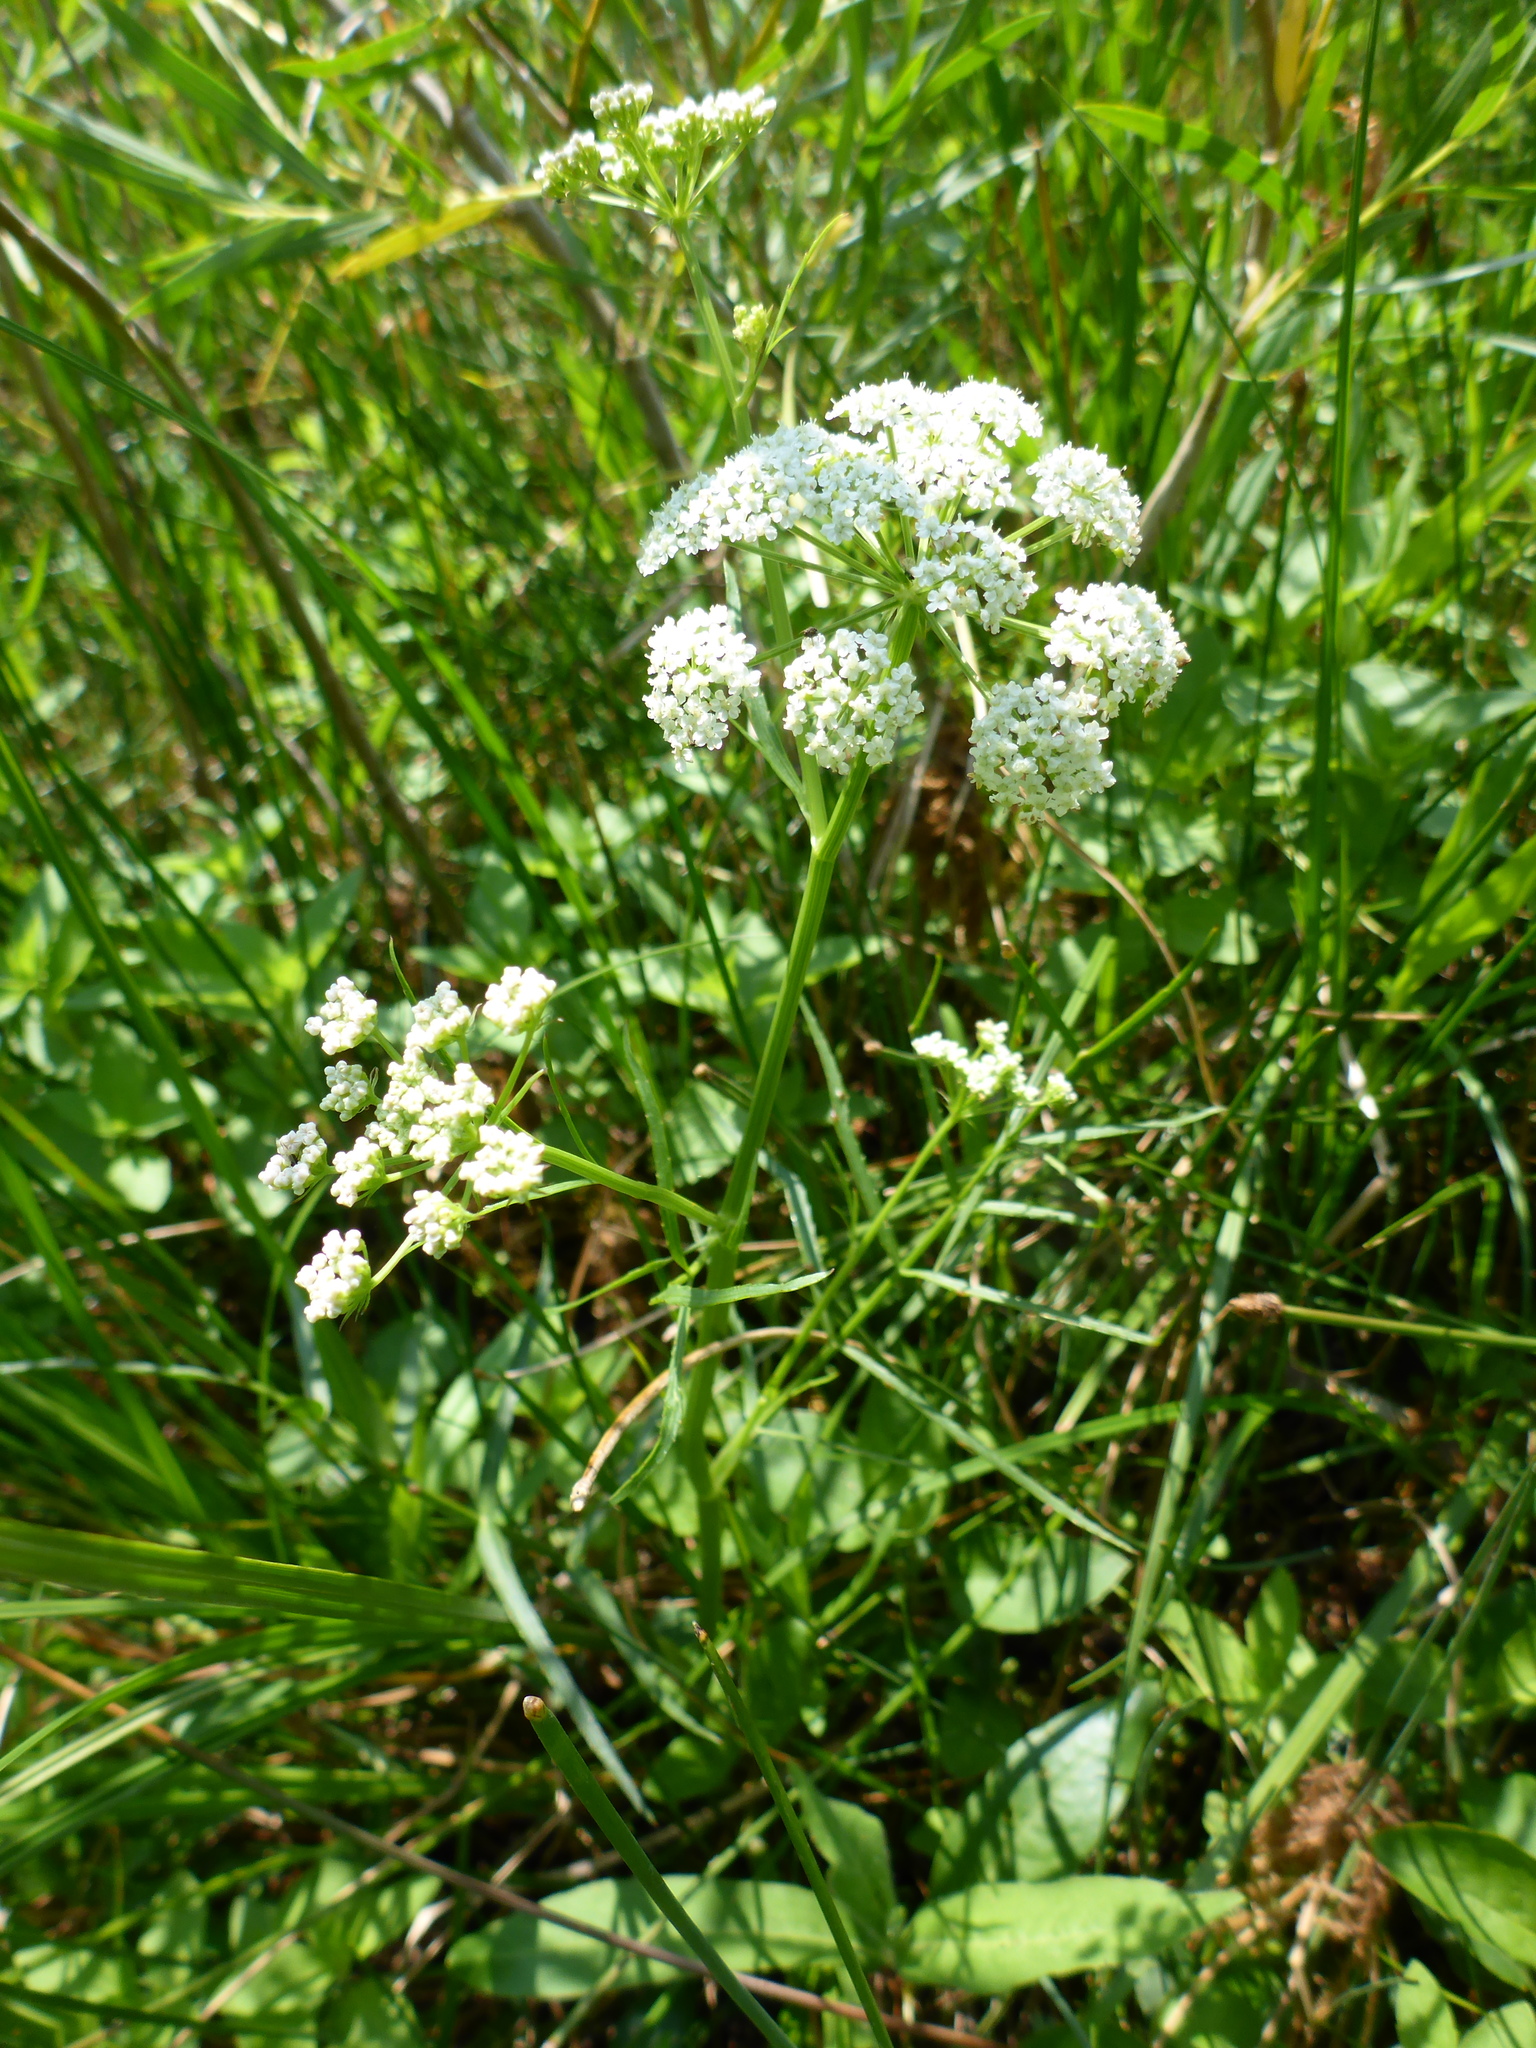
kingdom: Plantae
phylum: Tracheophyta
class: Magnoliopsida
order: Apiales
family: Apiaceae
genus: Perideridia
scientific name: Perideridia gairdneri
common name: False caraway
